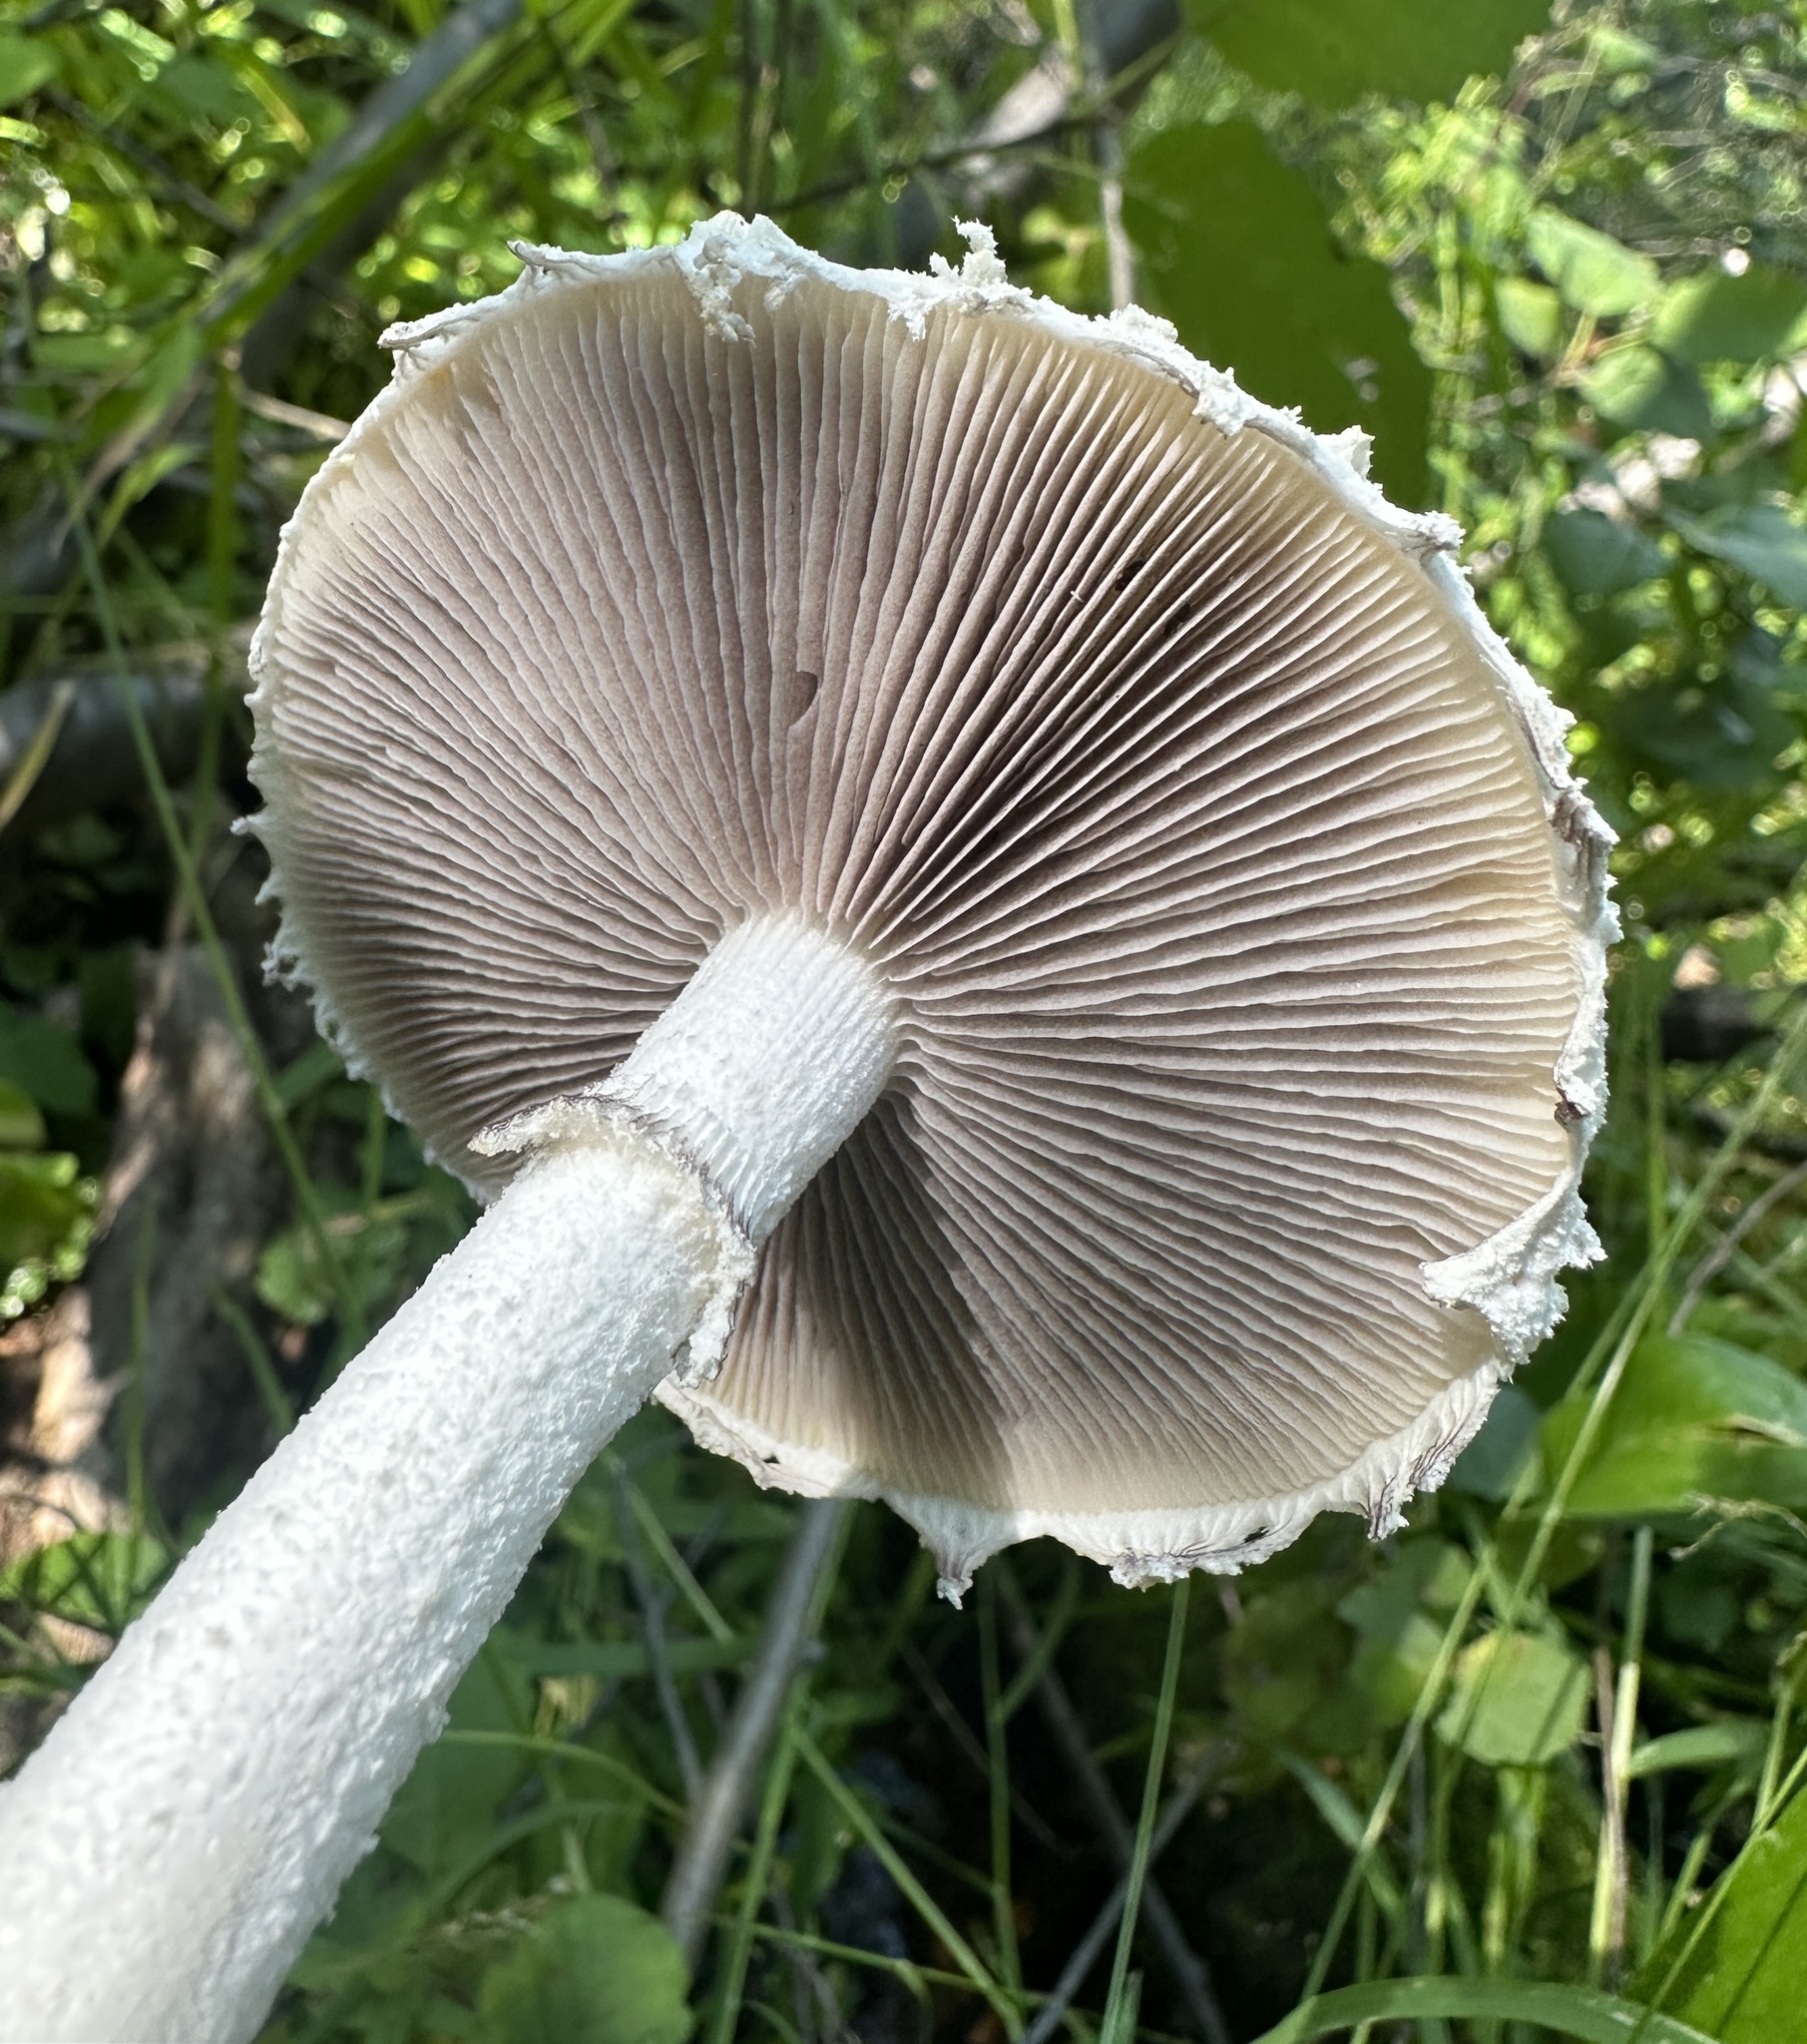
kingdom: Fungi
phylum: Basidiomycota
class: Agaricomycetes
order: Agaricales
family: Strophariaceae
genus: Stropharia
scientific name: Stropharia ambigua
